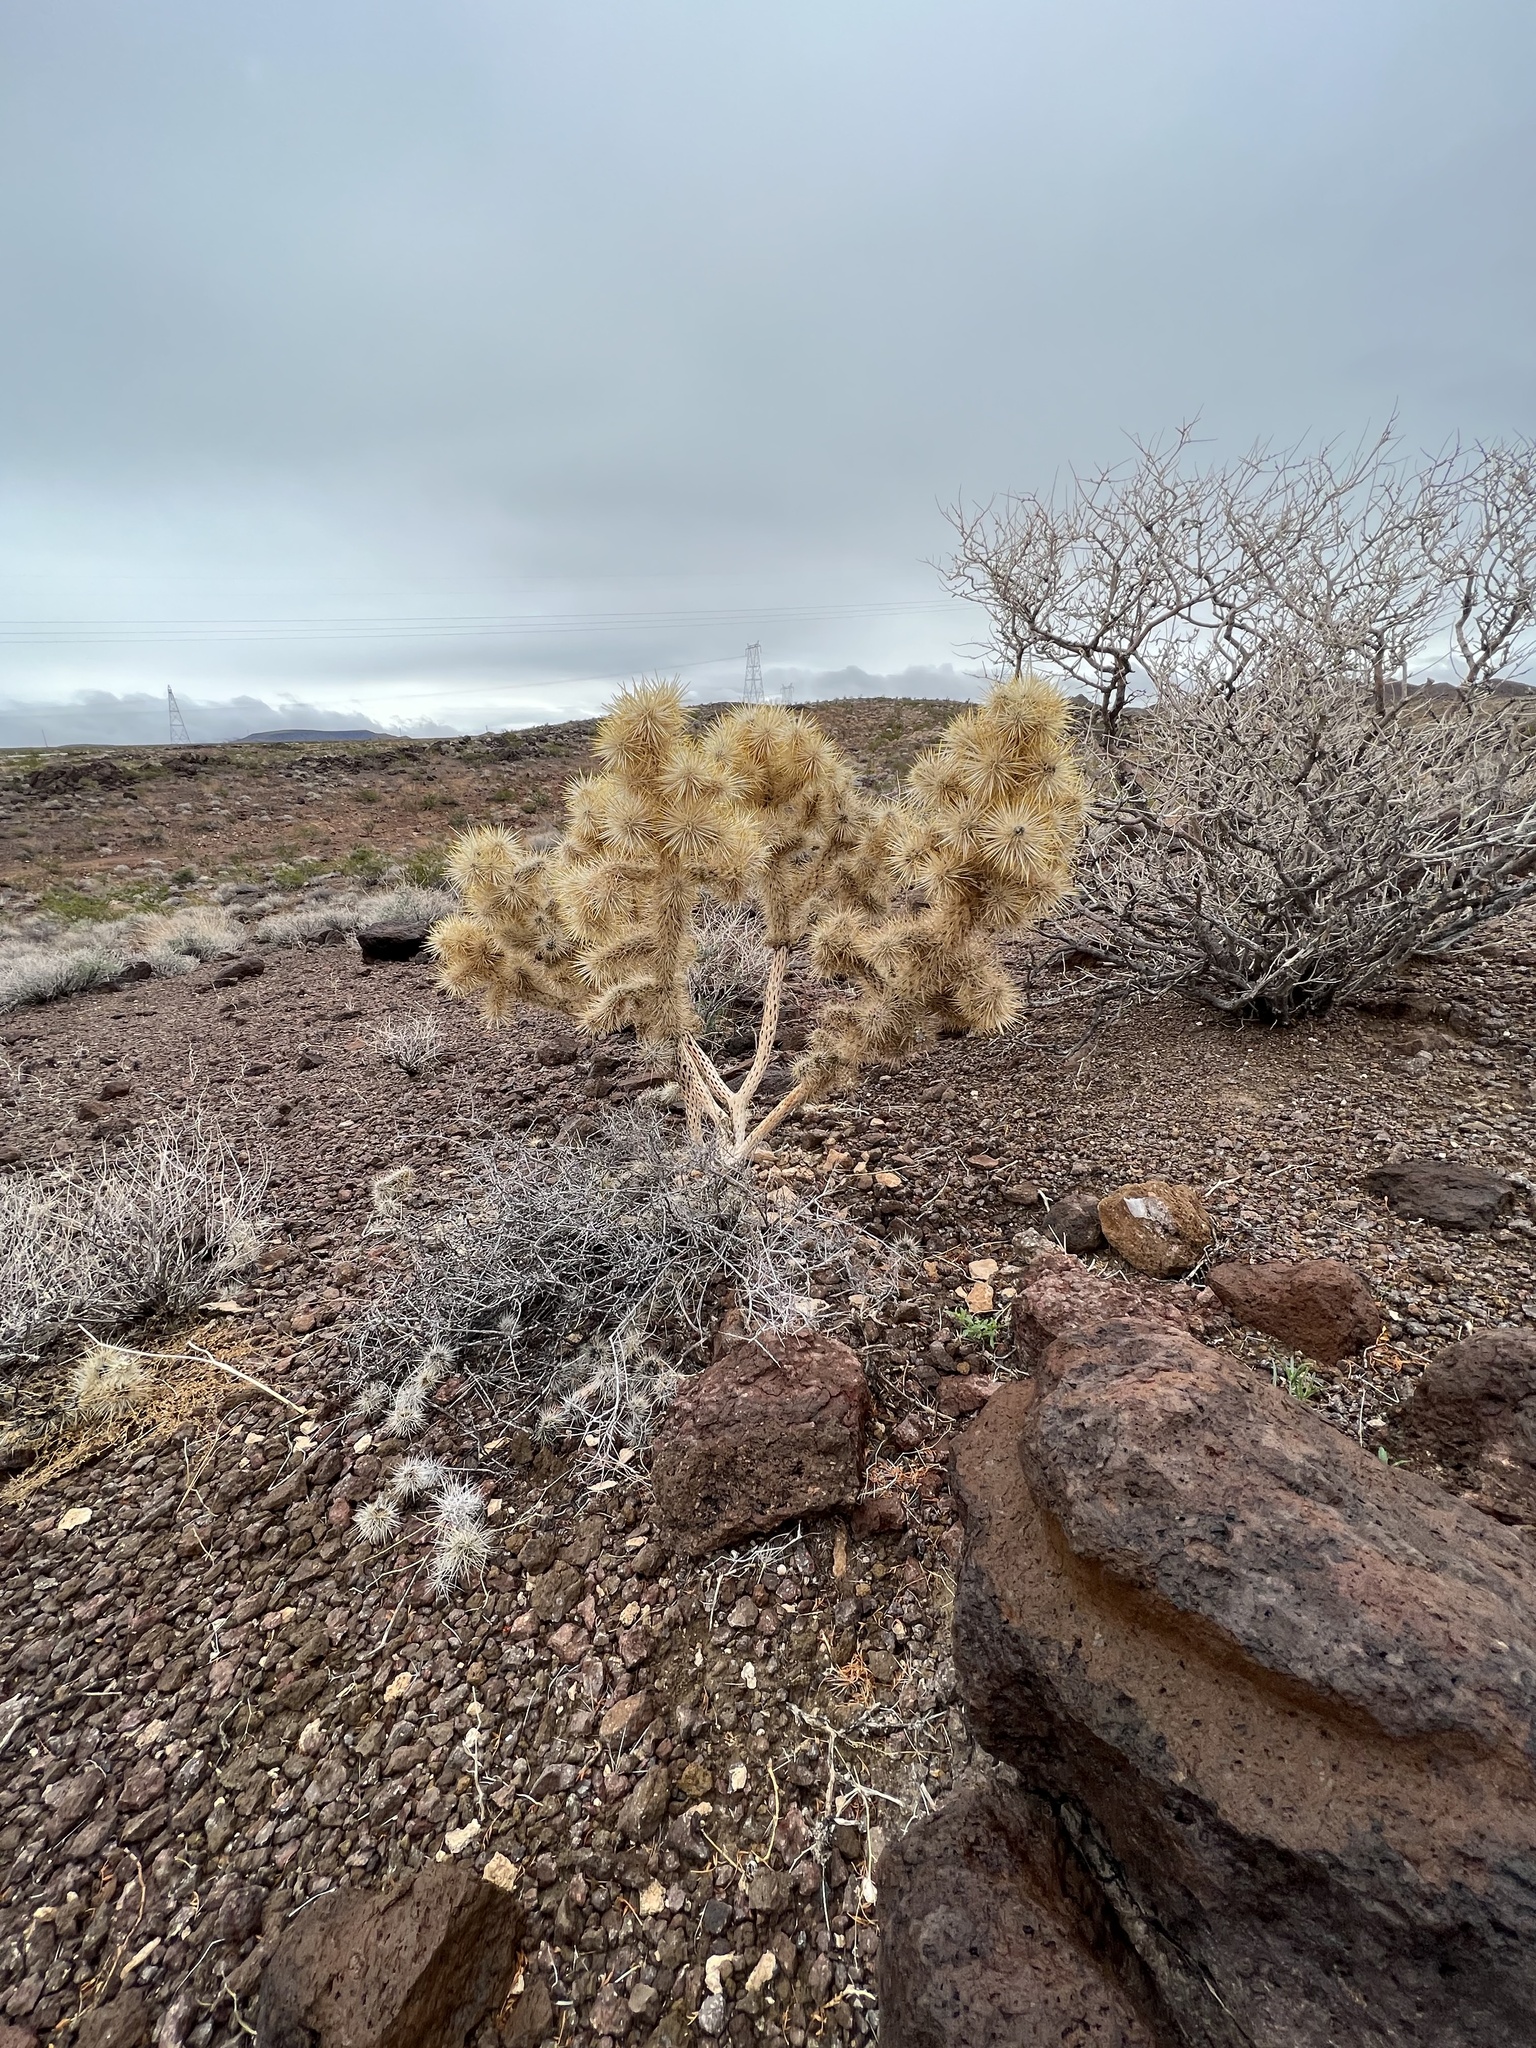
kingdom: Plantae
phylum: Tracheophyta
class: Magnoliopsida
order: Caryophyllales
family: Cactaceae
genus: Cylindropuntia
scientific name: Cylindropuntia echinocarpa
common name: Ground cholla
